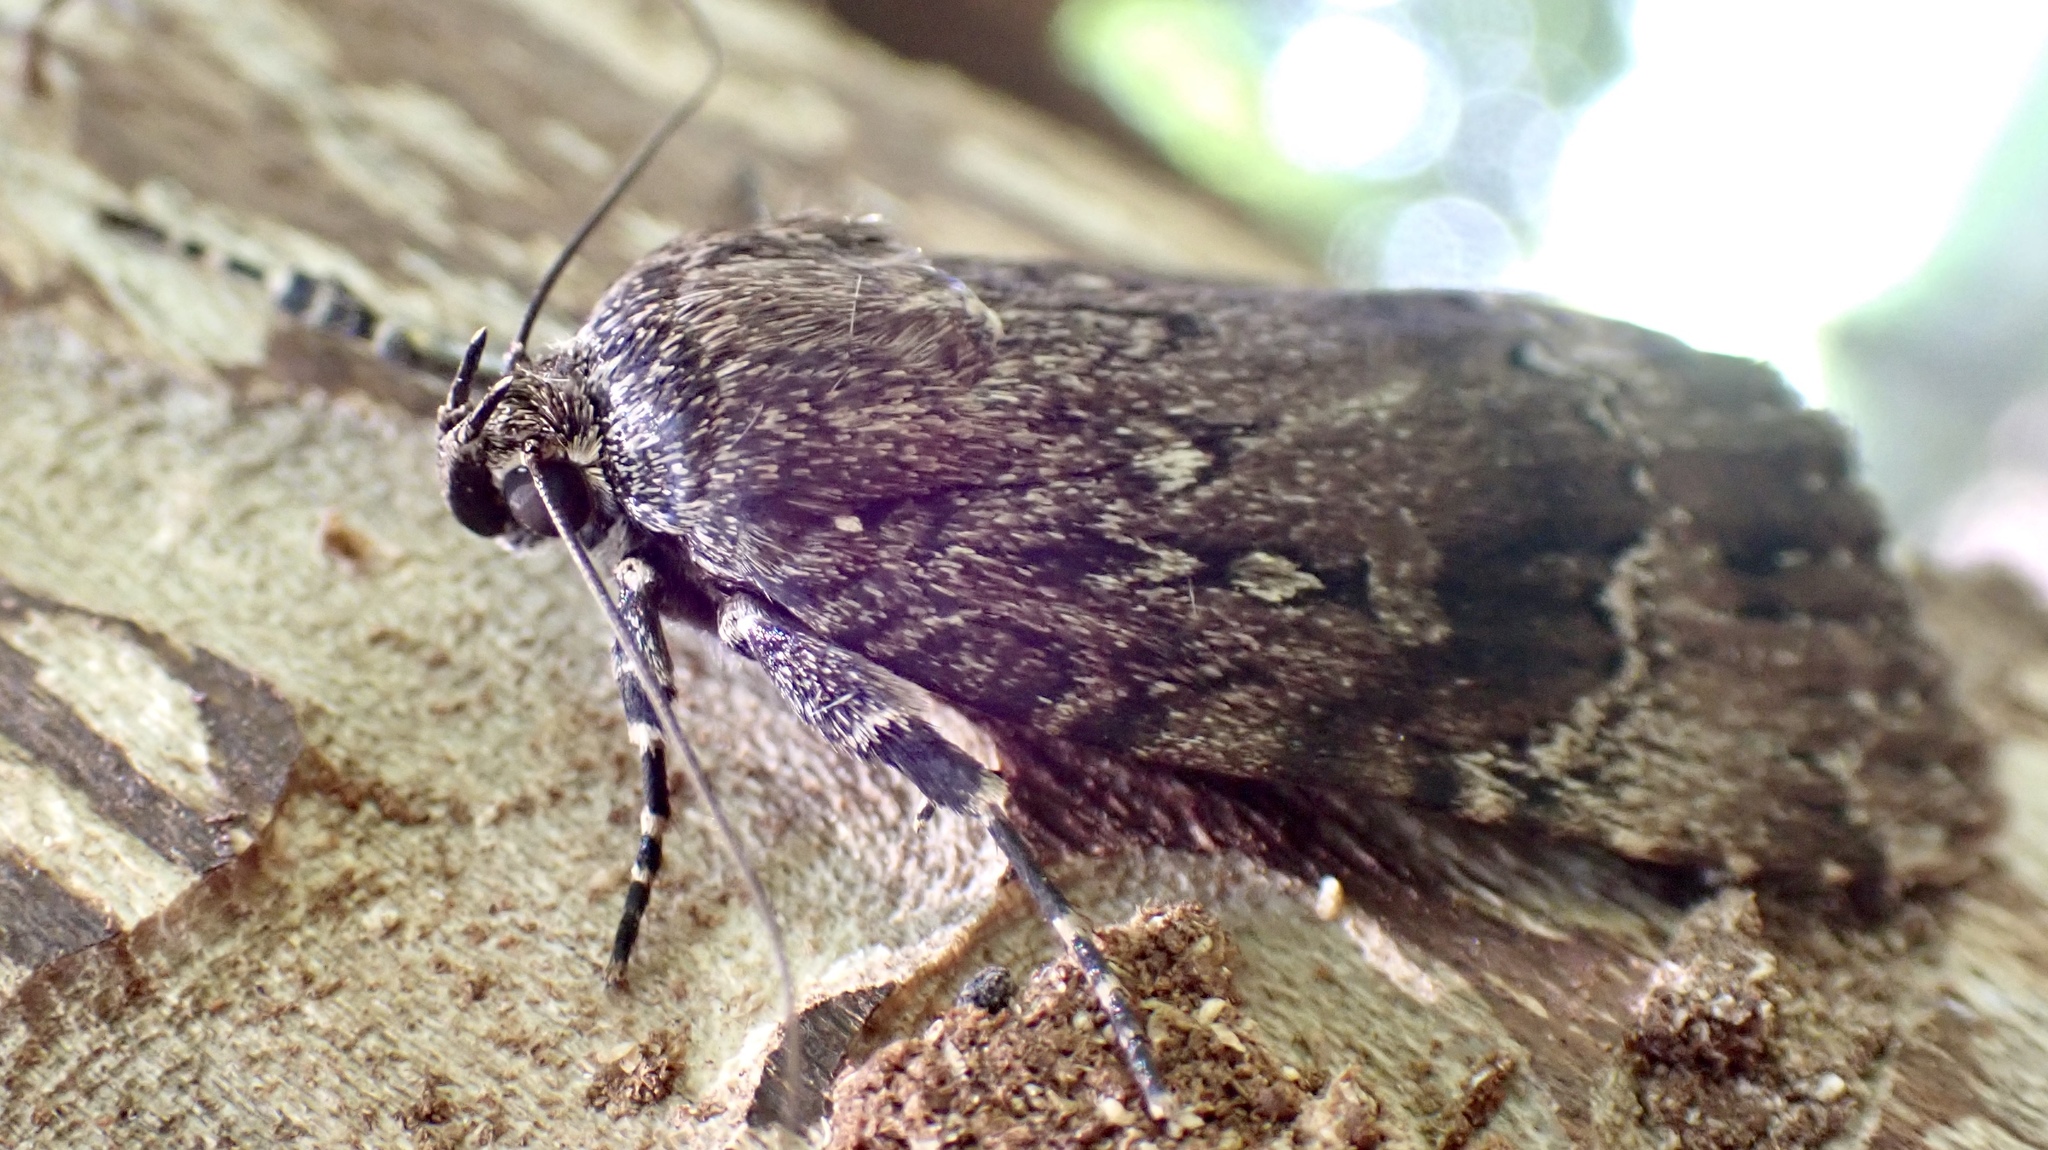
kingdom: Animalia
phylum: Arthropoda
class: Insecta
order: Lepidoptera
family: Noctuidae
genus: Amphipyra
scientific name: Amphipyra pyramidoides
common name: American copper underwing
